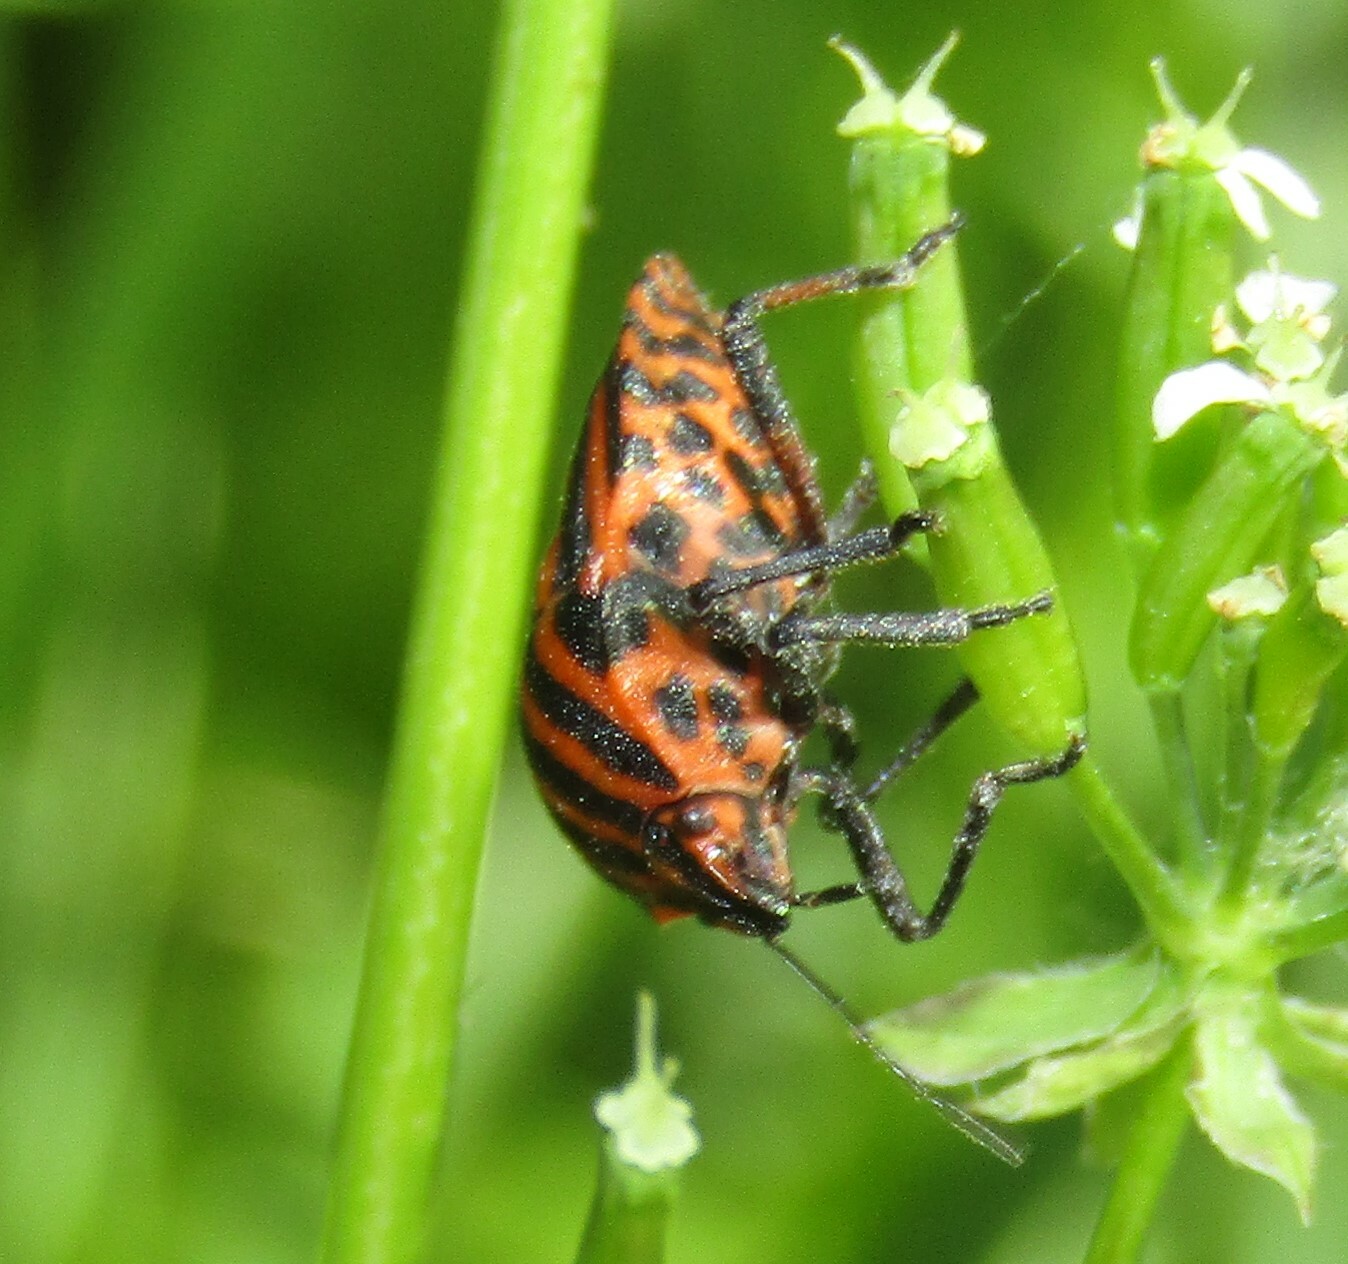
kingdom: Animalia
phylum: Arthropoda
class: Insecta
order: Hemiptera
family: Pentatomidae
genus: Graphosoma
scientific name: Graphosoma italicum
